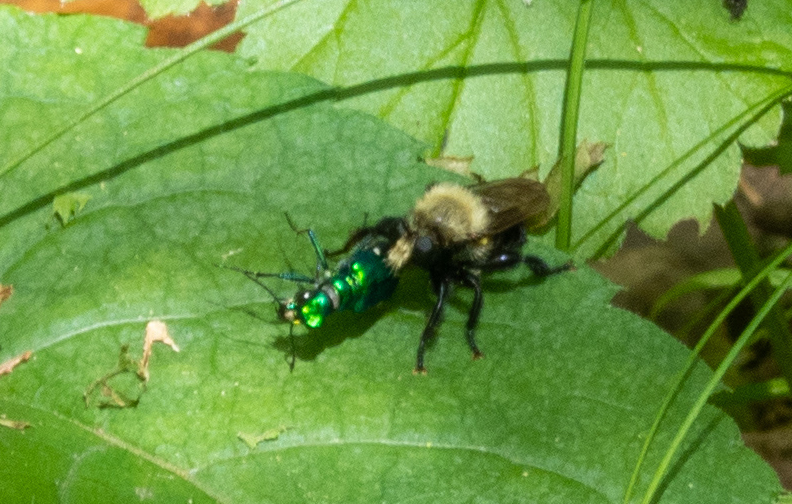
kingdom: Animalia
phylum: Arthropoda
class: Insecta
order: Coleoptera
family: Carabidae
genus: Cicindela
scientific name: Cicindela sexguttata
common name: Six-spotted tiger beetle
